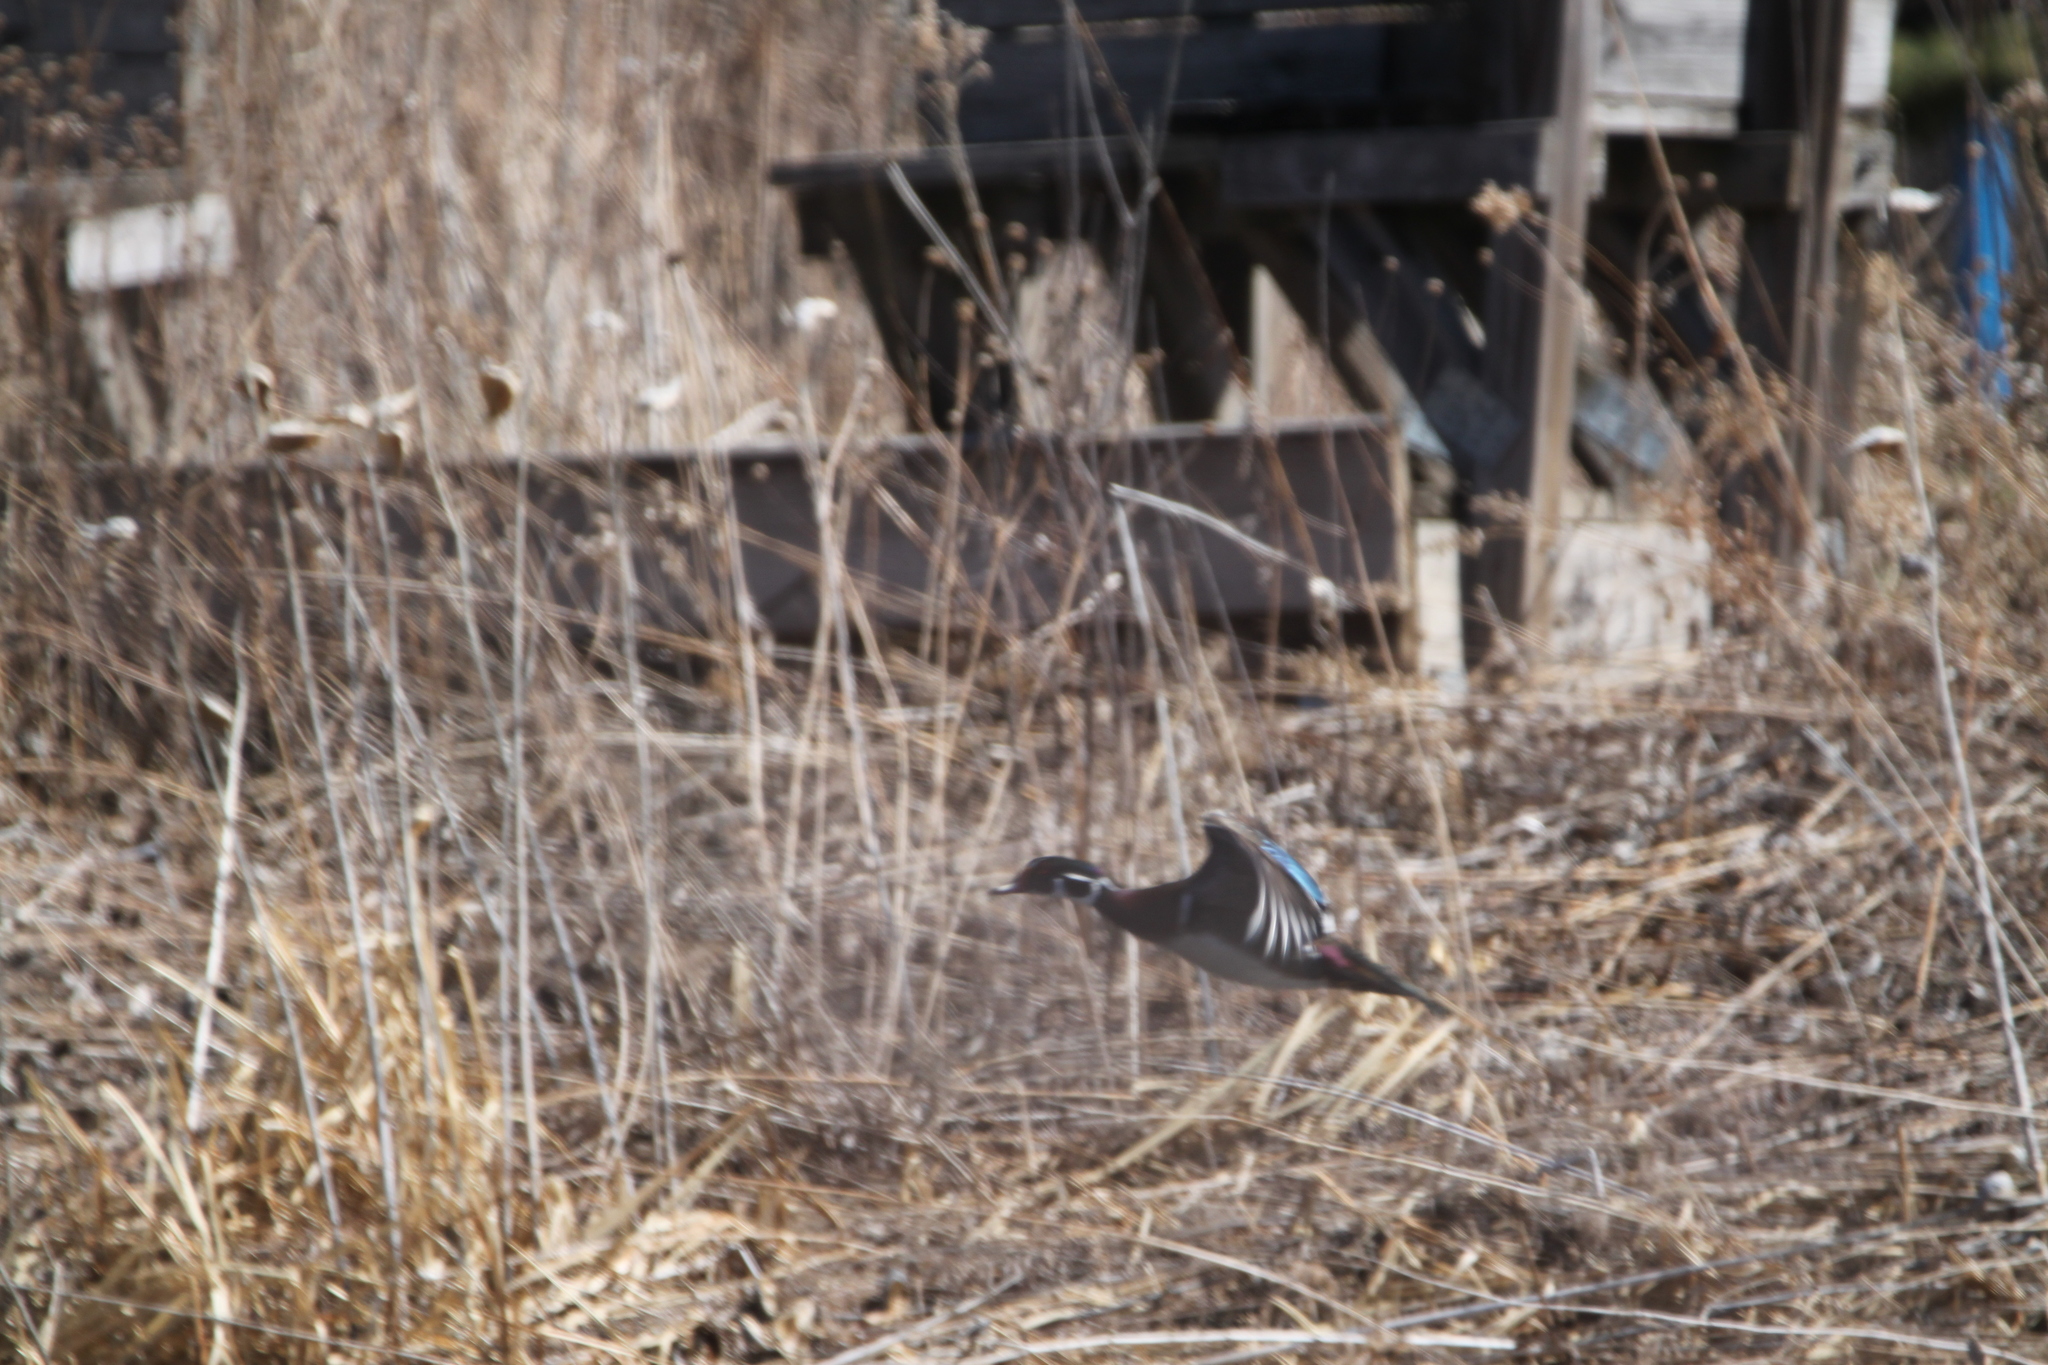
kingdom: Animalia
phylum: Chordata
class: Aves
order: Anseriformes
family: Anatidae
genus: Aix
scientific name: Aix sponsa
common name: Wood duck
